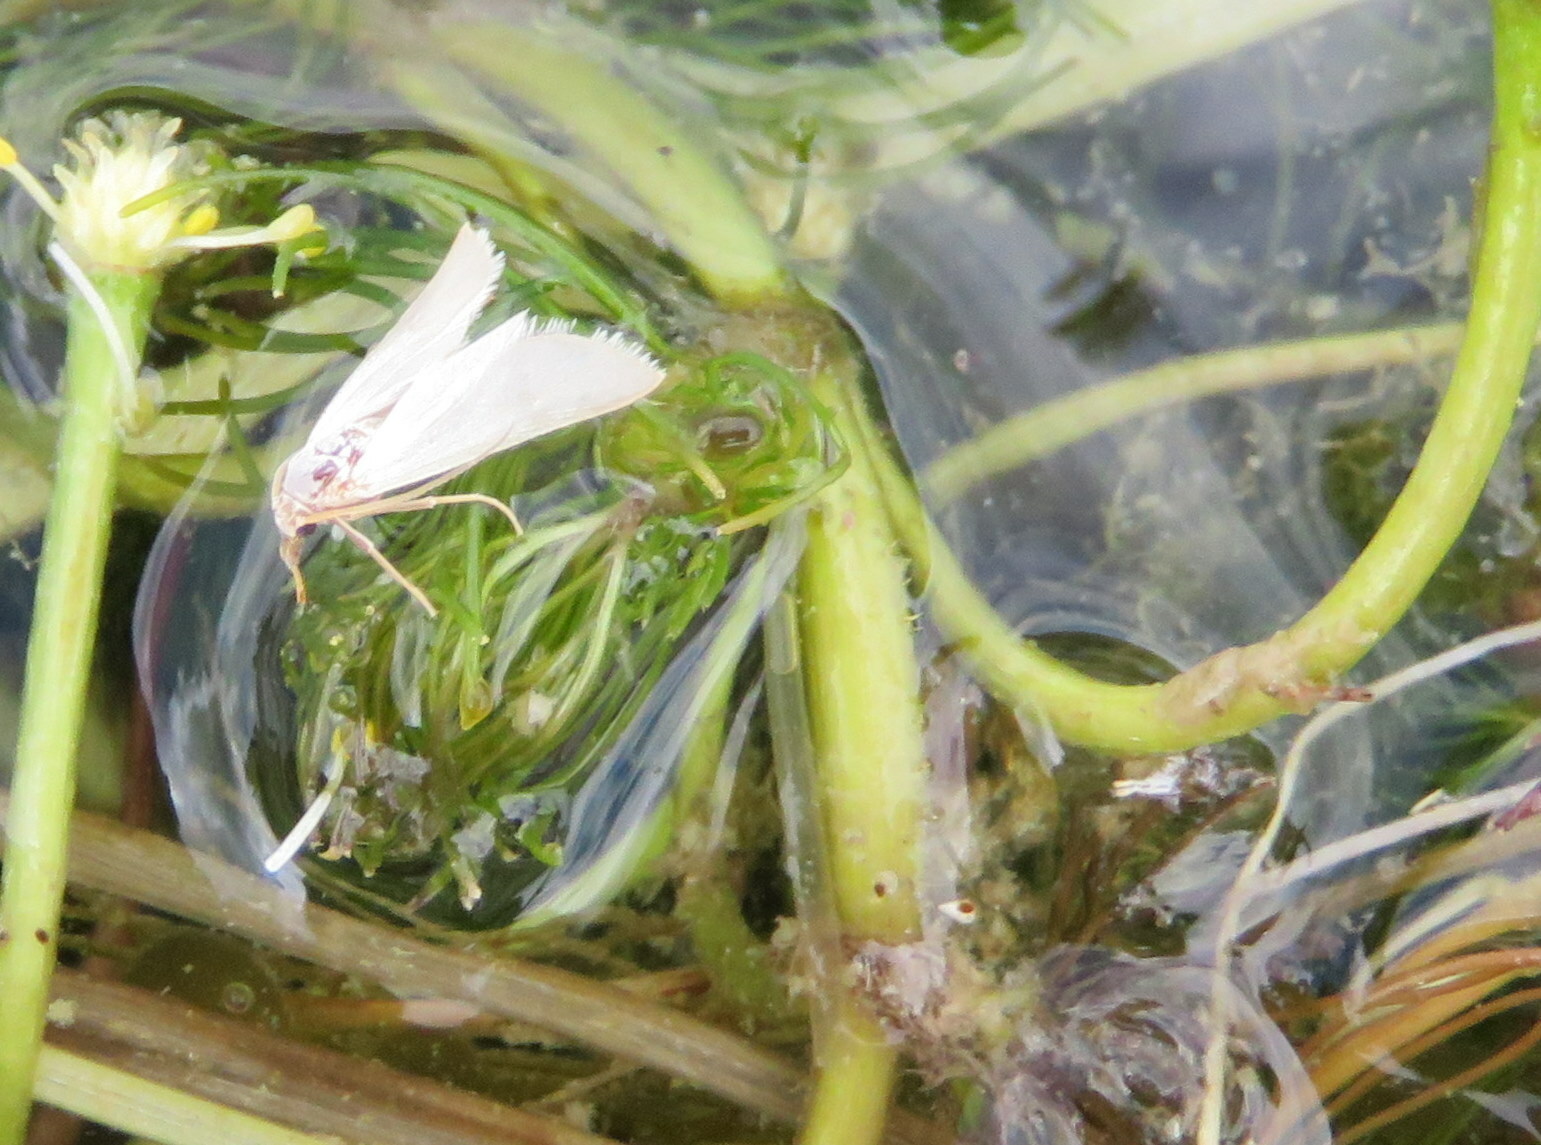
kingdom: Animalia
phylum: Arthropoda
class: Insecta
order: Lepidoptera
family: Crambidae
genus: Acentria
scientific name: Acentria ephemerella
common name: European water moth
